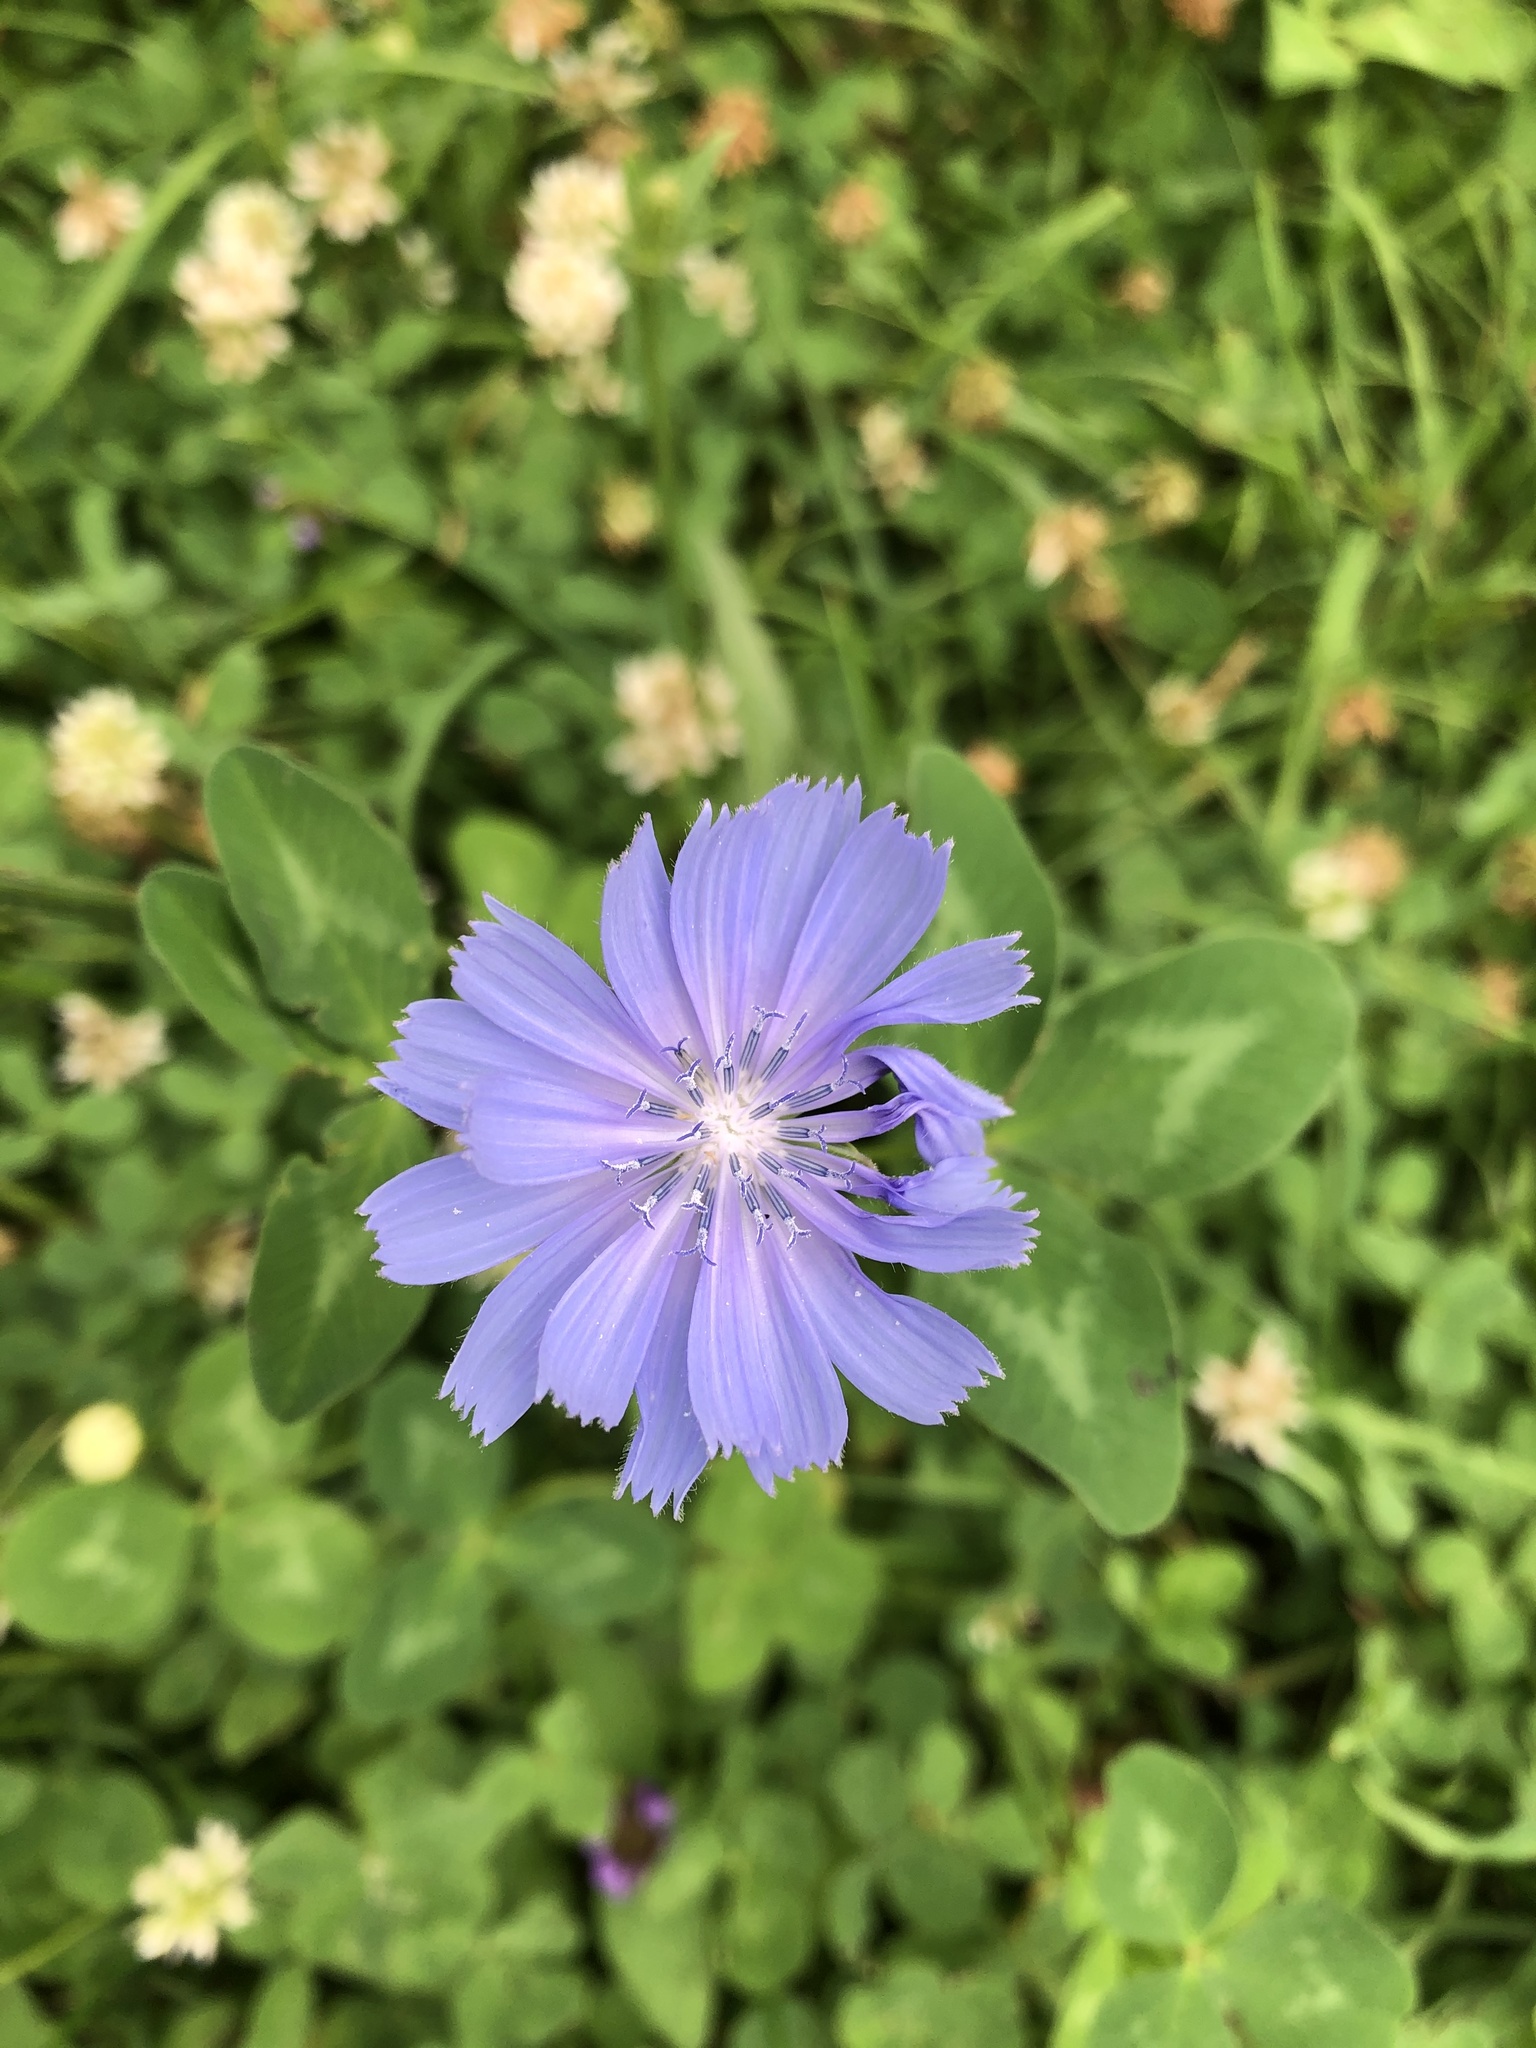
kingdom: Plantae
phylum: Tracheophyta
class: Magnoliopsida
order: Asterales
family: Asteraceae
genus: Cichorium
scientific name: Cichorium intybus
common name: Chicory
